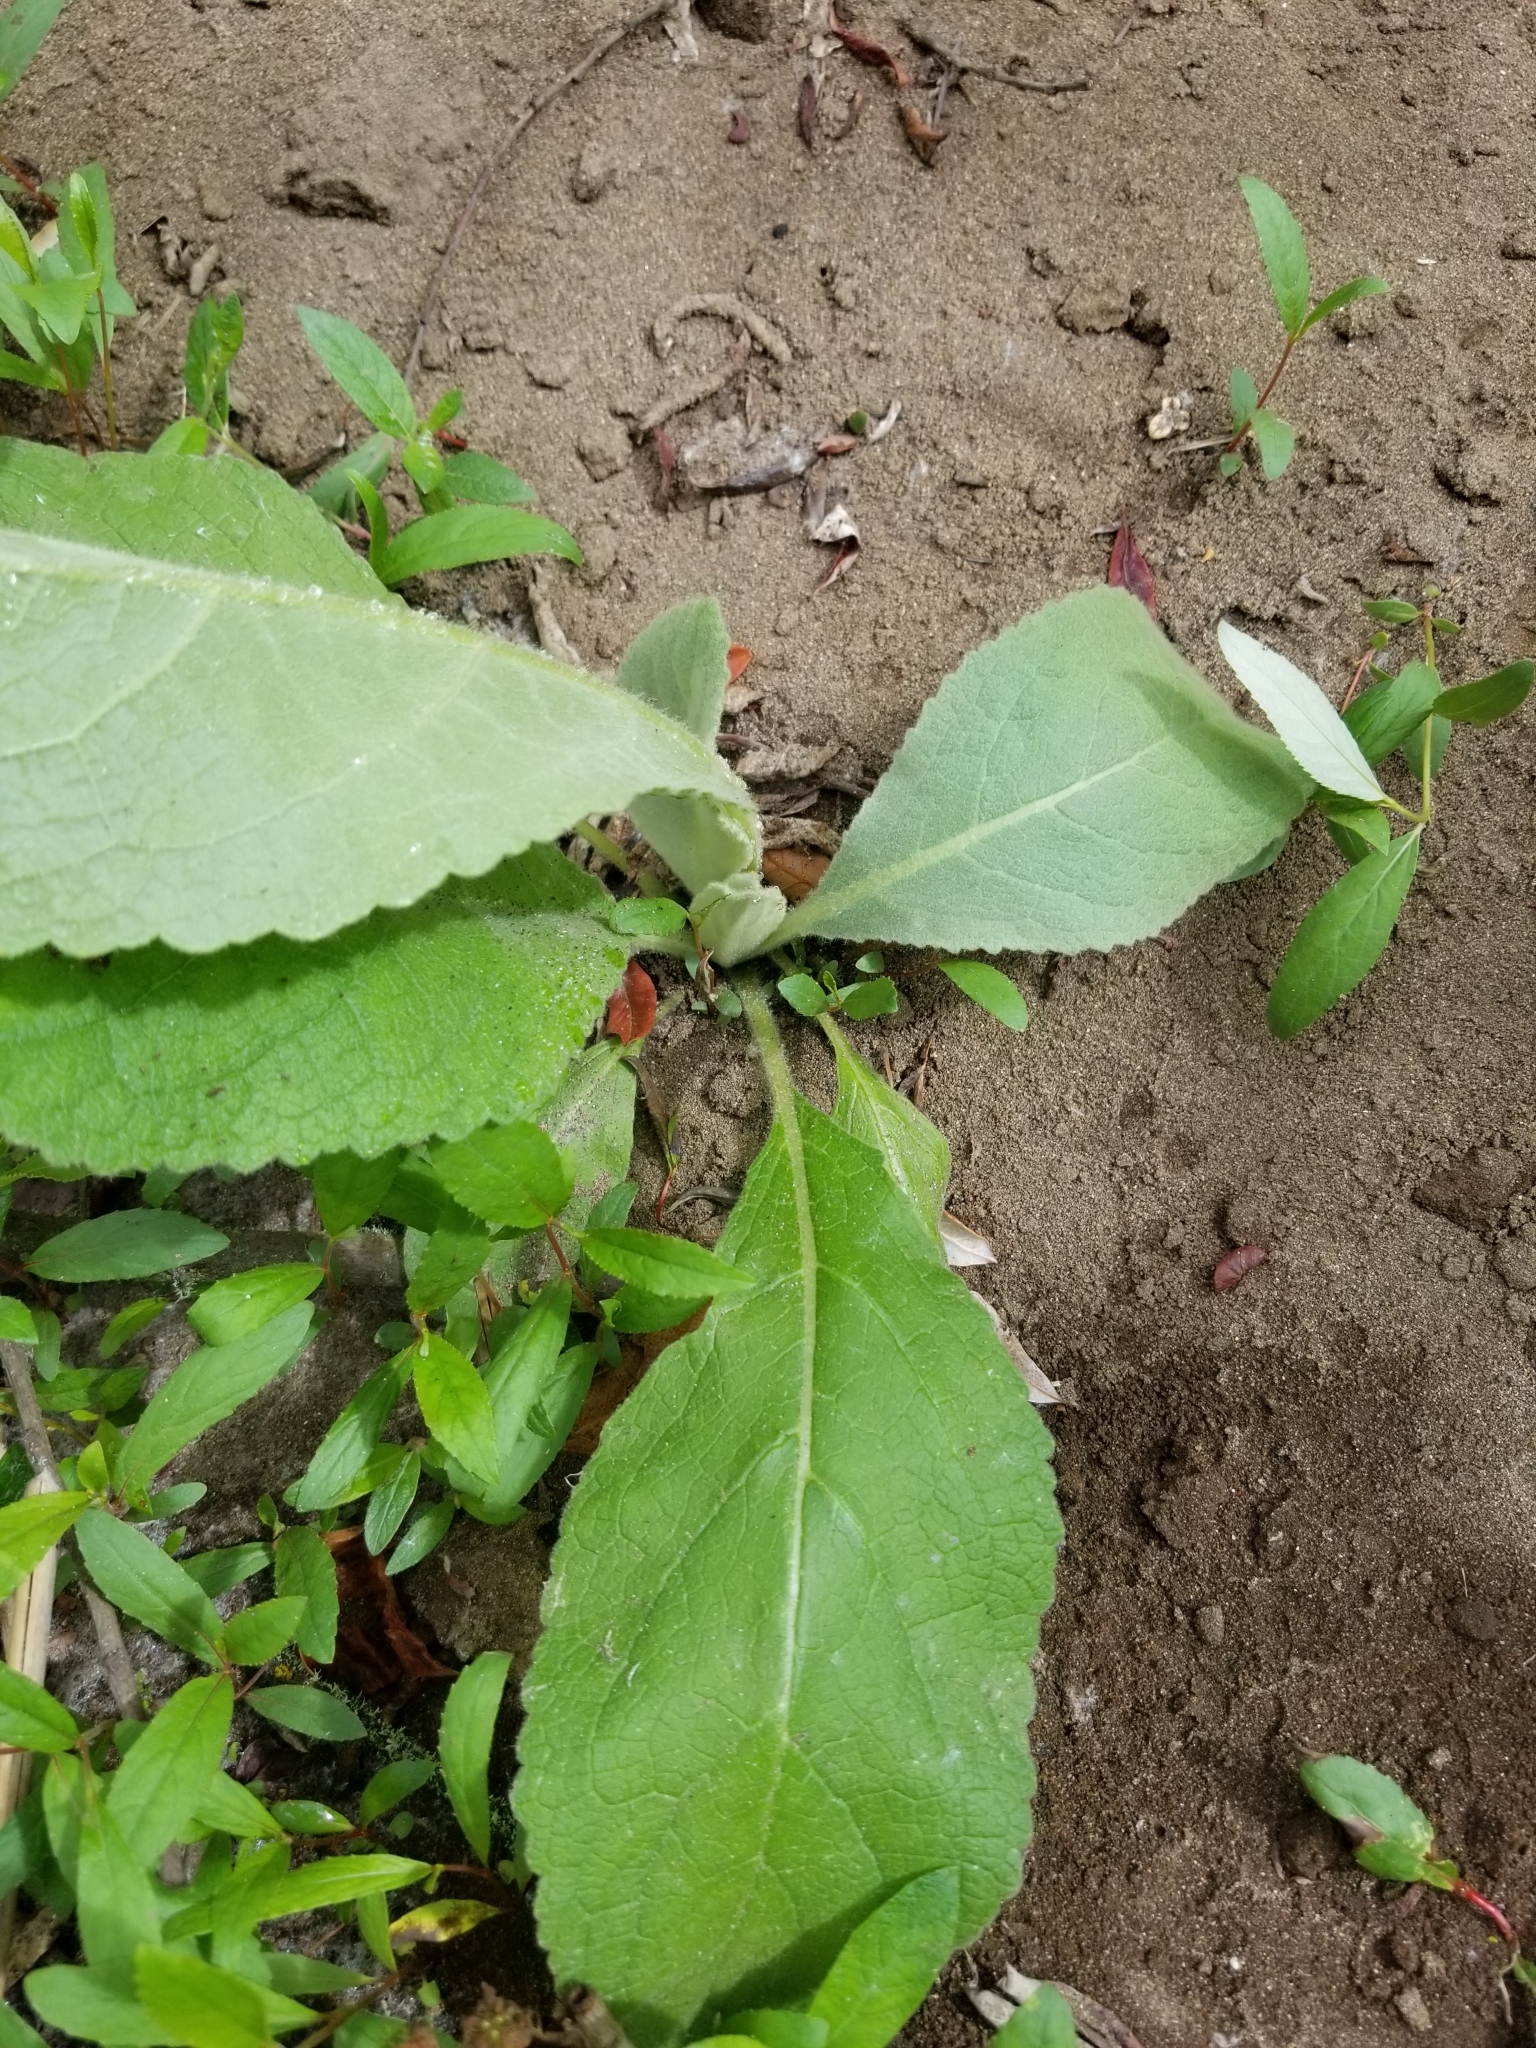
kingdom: Plantae
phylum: Tracheophyta
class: Magnoliopsida
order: Lamiales
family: Scrophulariaceae
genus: Verbascum
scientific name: Verbascum thapsus
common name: Common mullein
